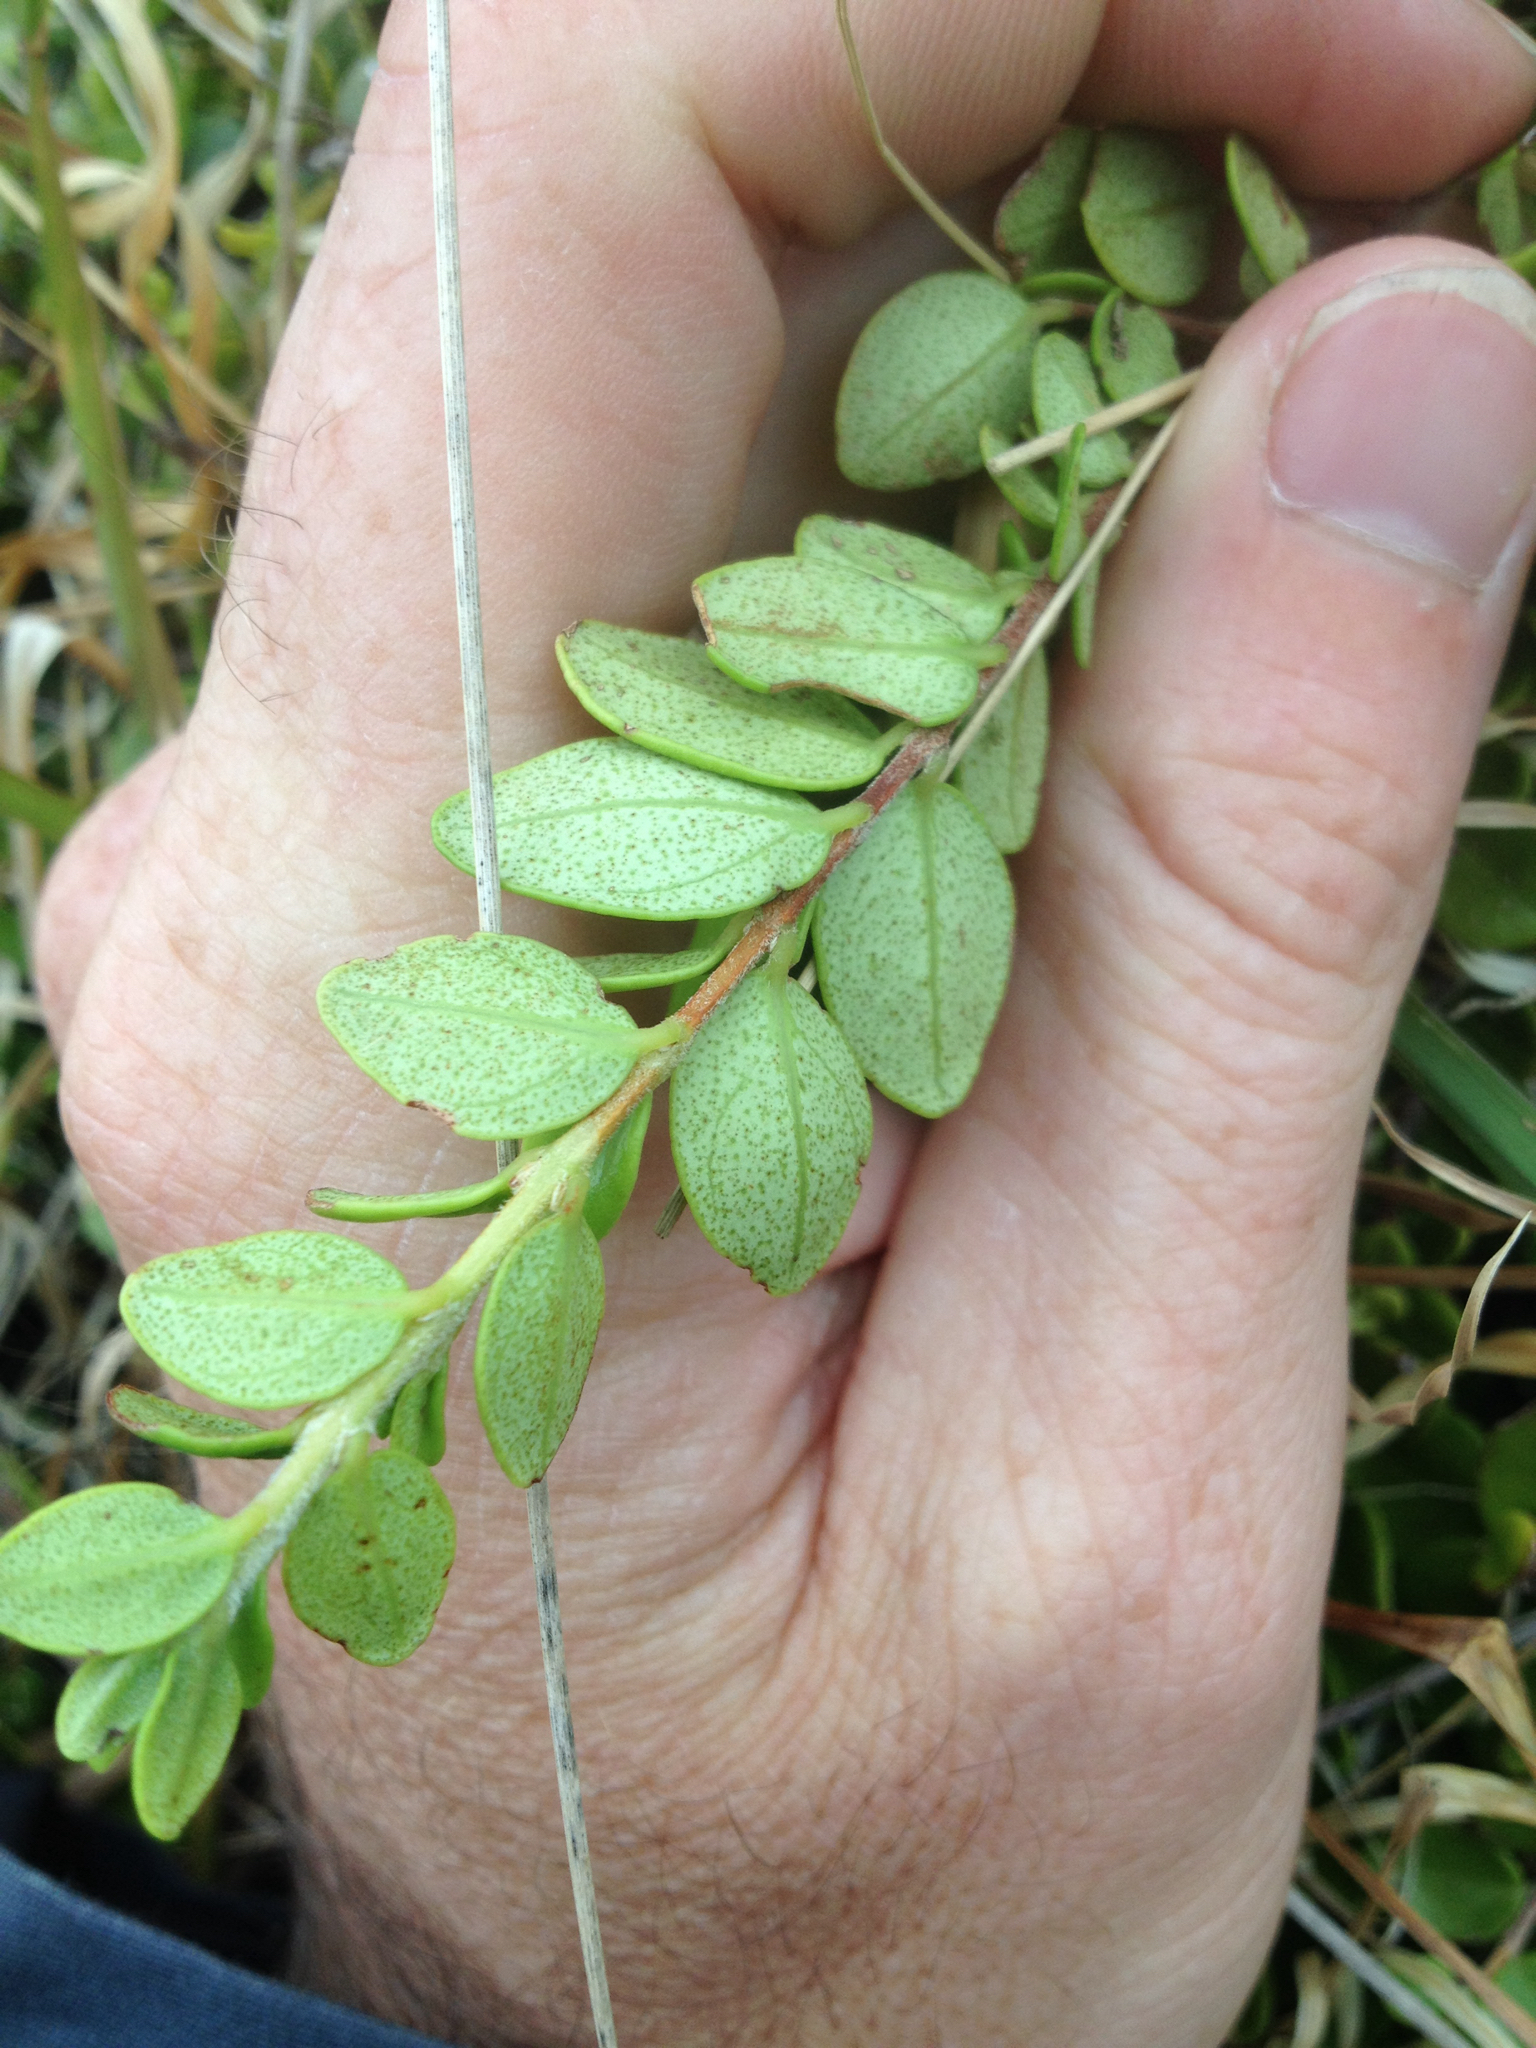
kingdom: Plantae
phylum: Tracheophyta
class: Magnoliopsida
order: Myrtales
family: Myrtaceae
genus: Metrosideros
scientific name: Metrosideros perforata
